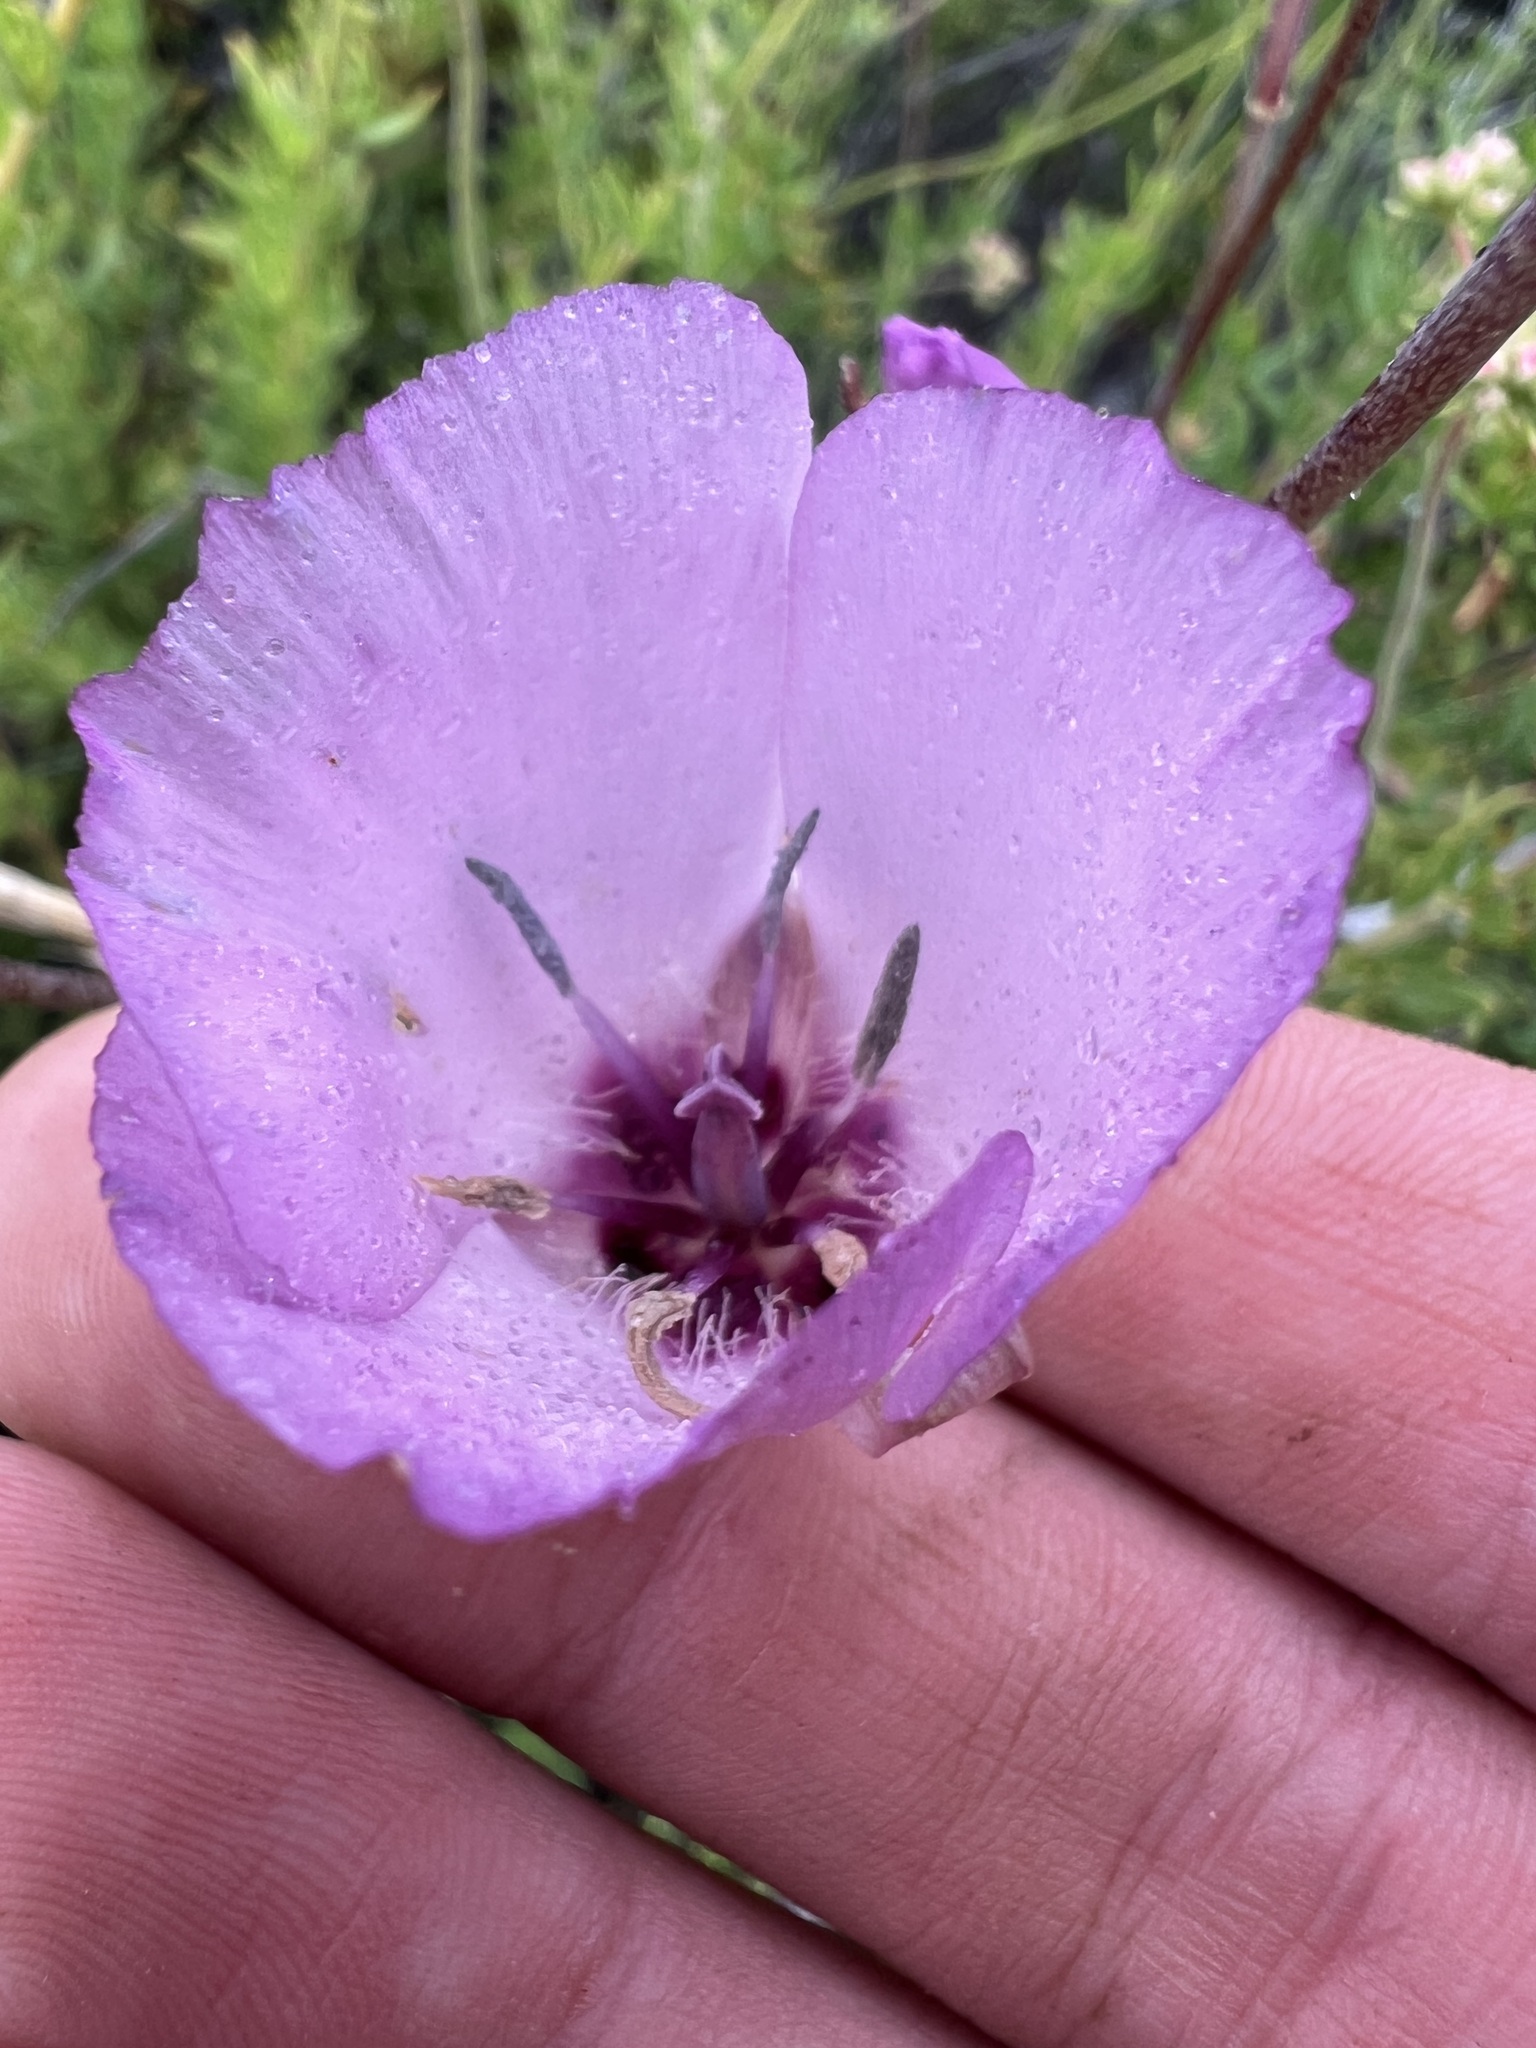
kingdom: Plantae
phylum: Tracheophyta
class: Liliopsida
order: Liliales
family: Liliaceae
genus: Calochortus
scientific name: Calochortus splendens
